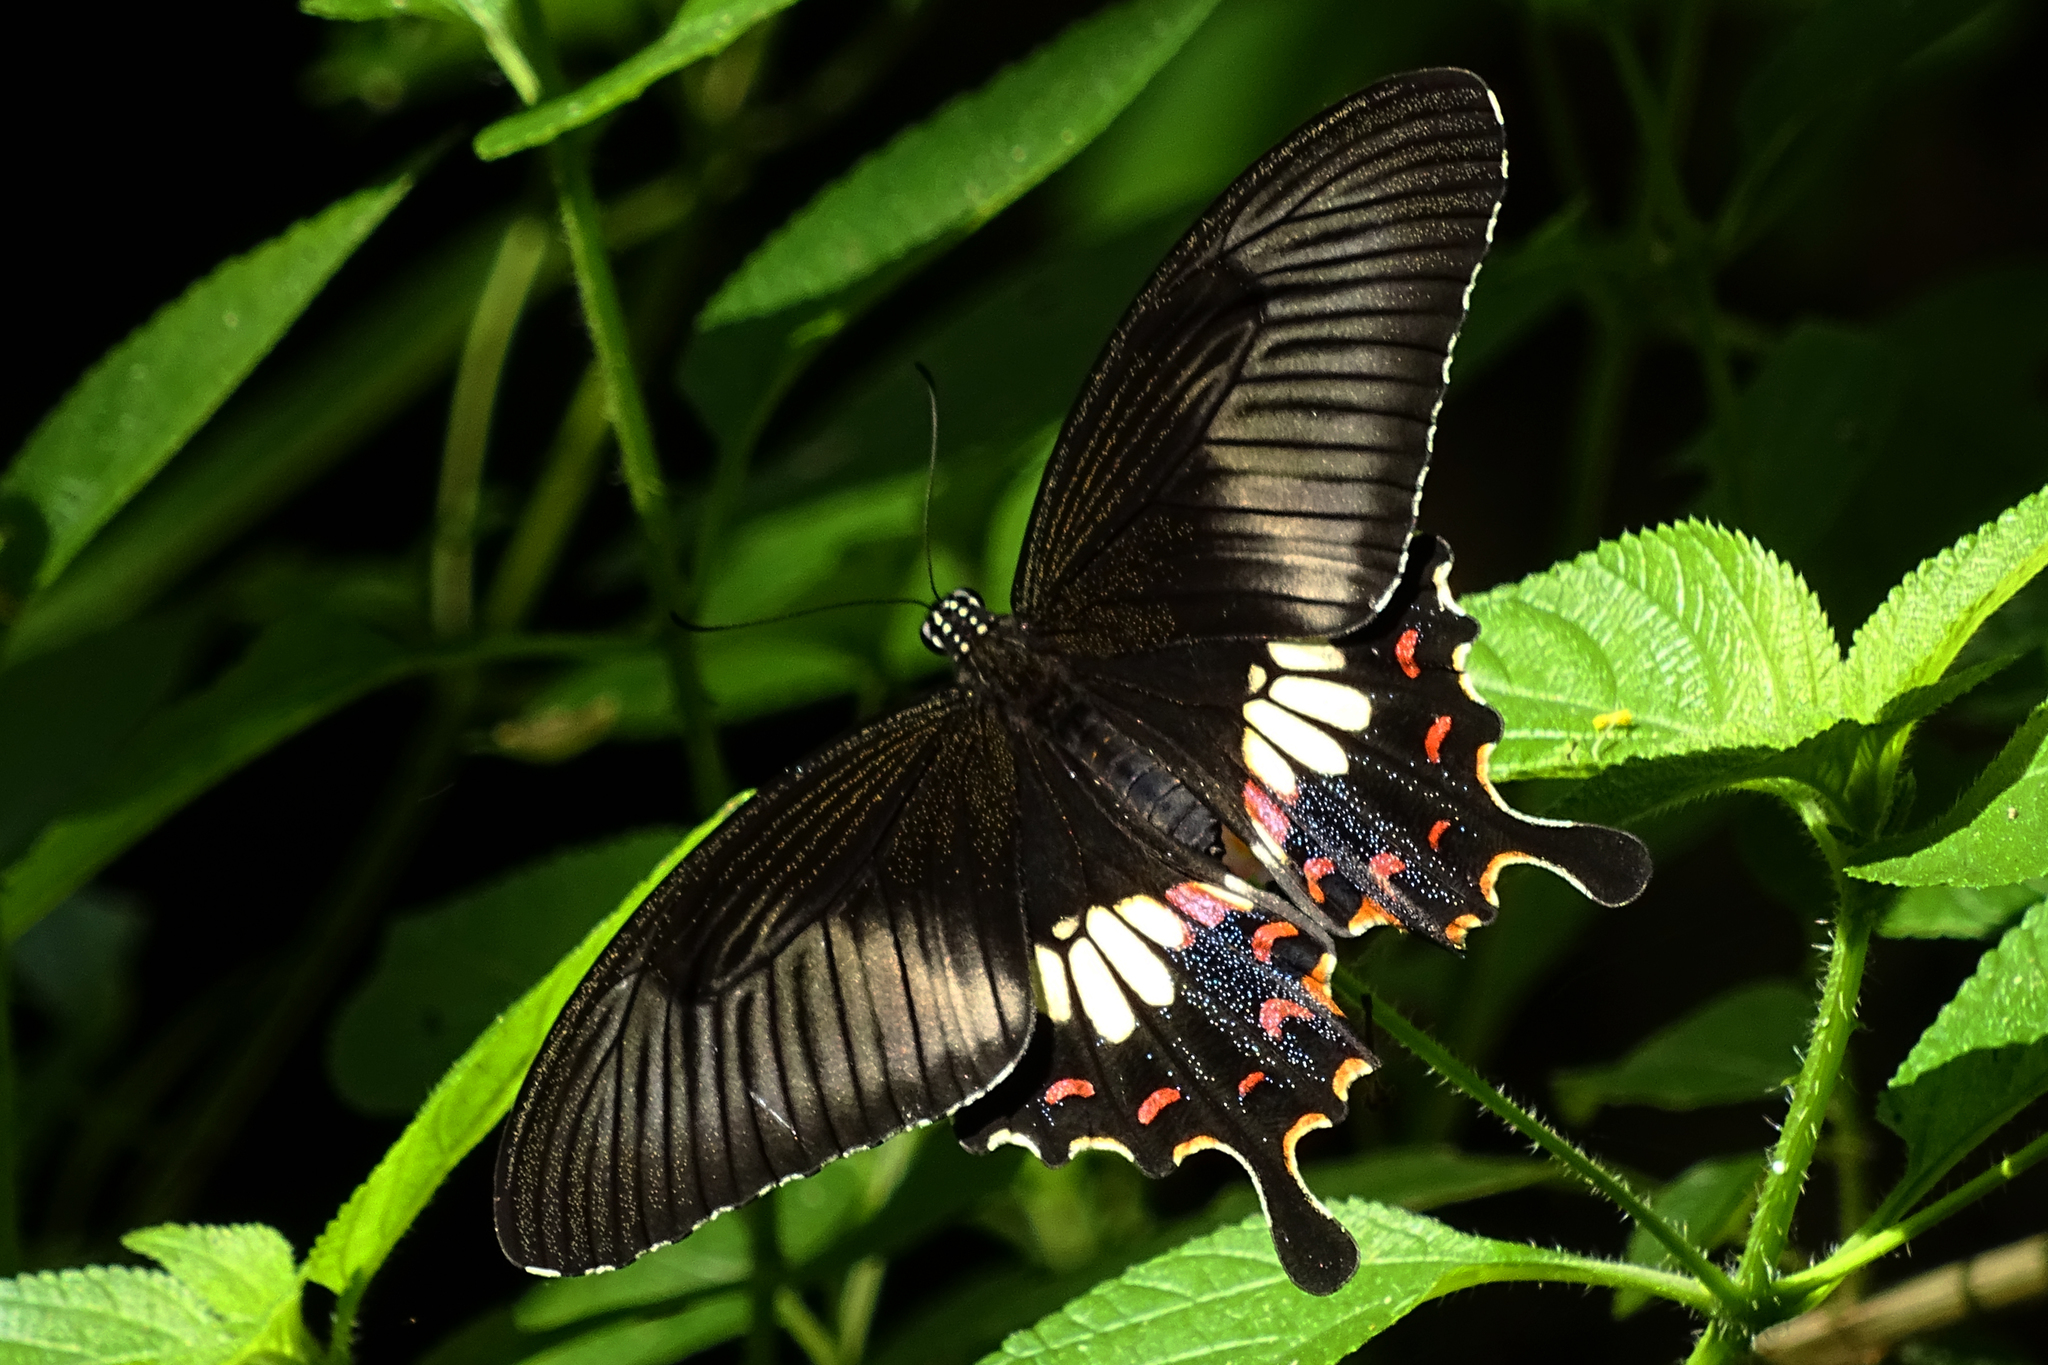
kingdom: Animalia
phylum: Arthropoda
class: Insecta
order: Lepidoptera
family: Papilionidae
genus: Papilio
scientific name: Papilio polytes
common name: Common mormon
